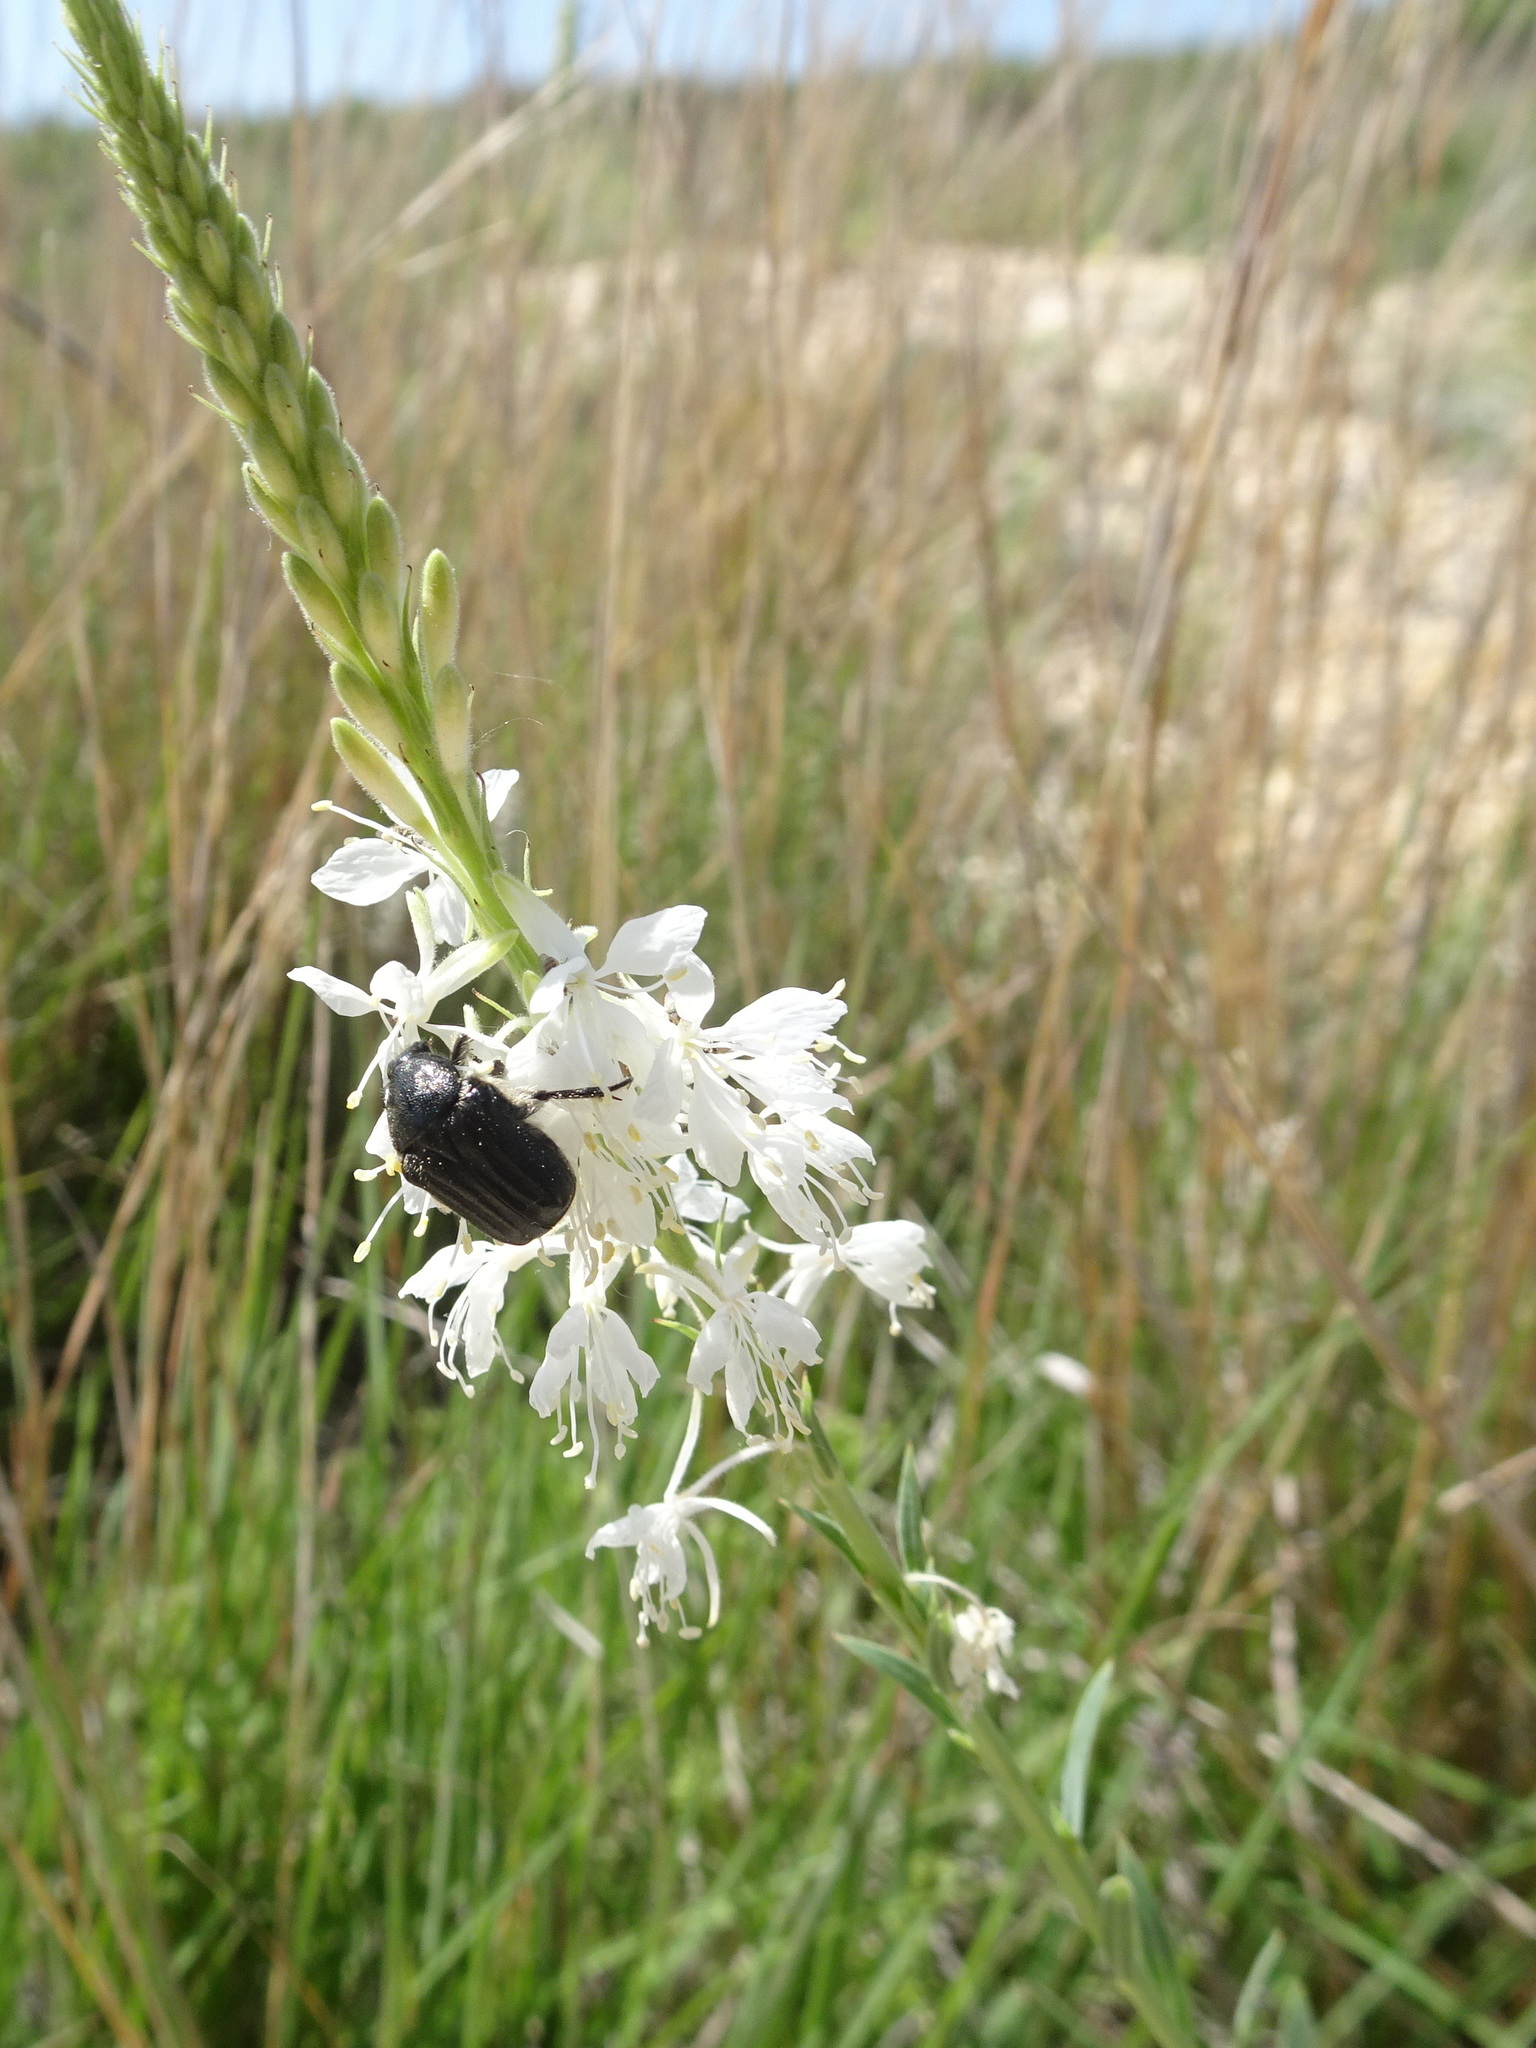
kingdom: Plantae
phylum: Tracheophyta
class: Magnoliopsida
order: Myrtales
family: Onagraceae
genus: Oenothera
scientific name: Oenothera glaucifolia
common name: False gaura
